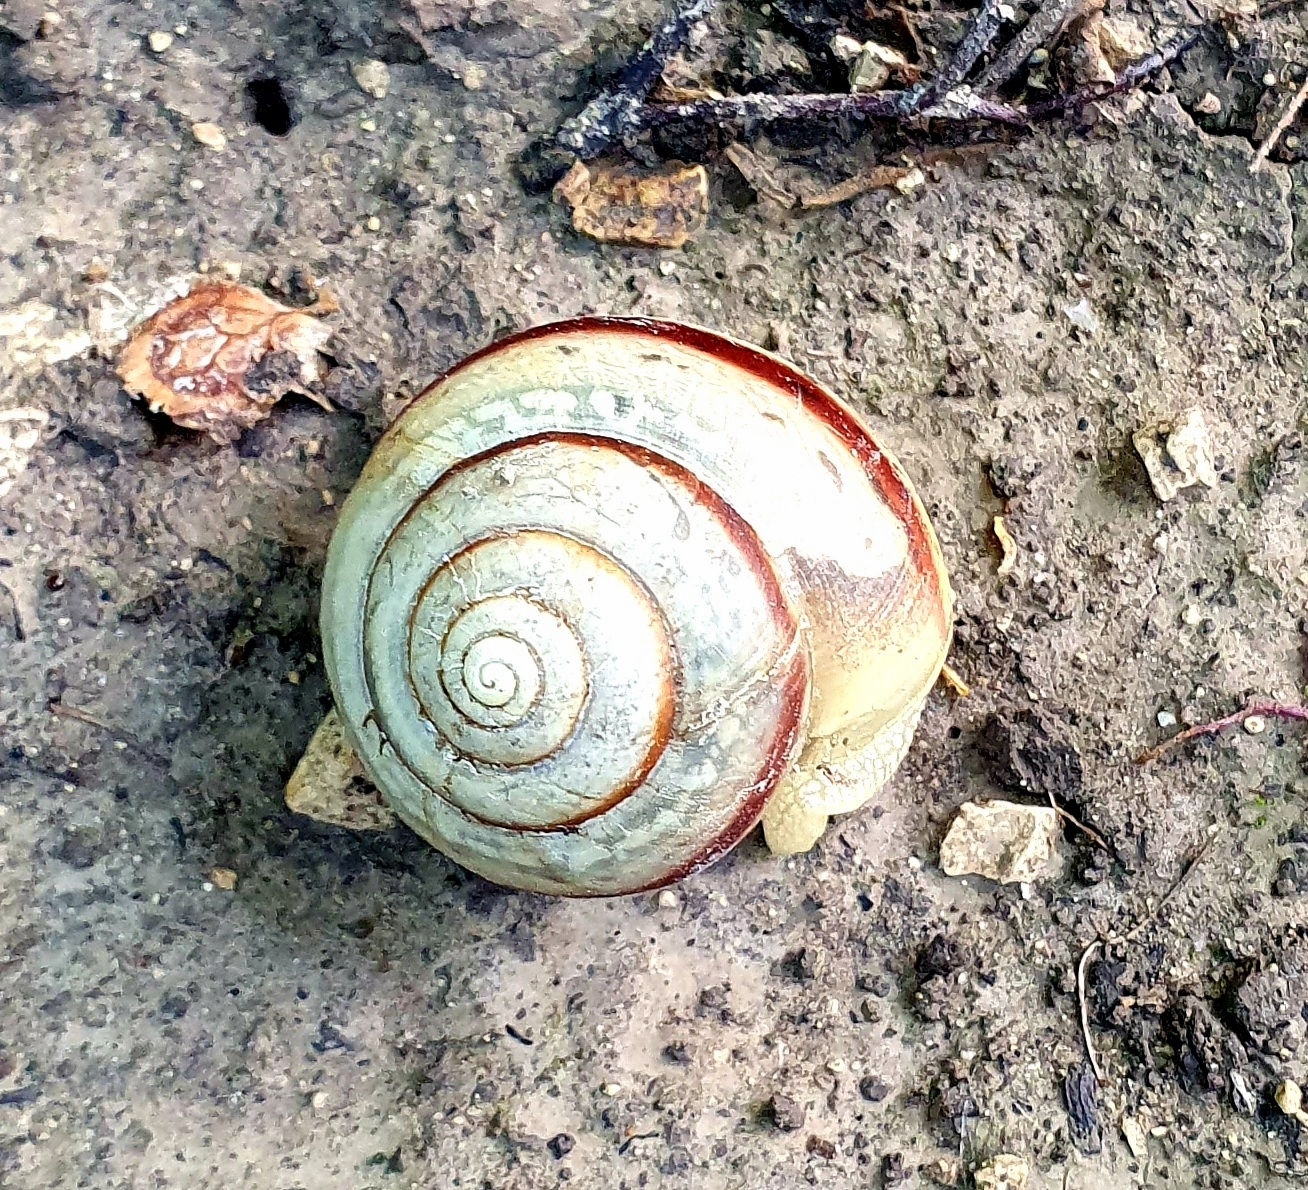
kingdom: Animalia
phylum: Mollusca
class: Gastropoda
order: Stylommatophora
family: Camaenidae
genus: Fruticicola
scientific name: Fruticicola fruticum
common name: Bush snail
